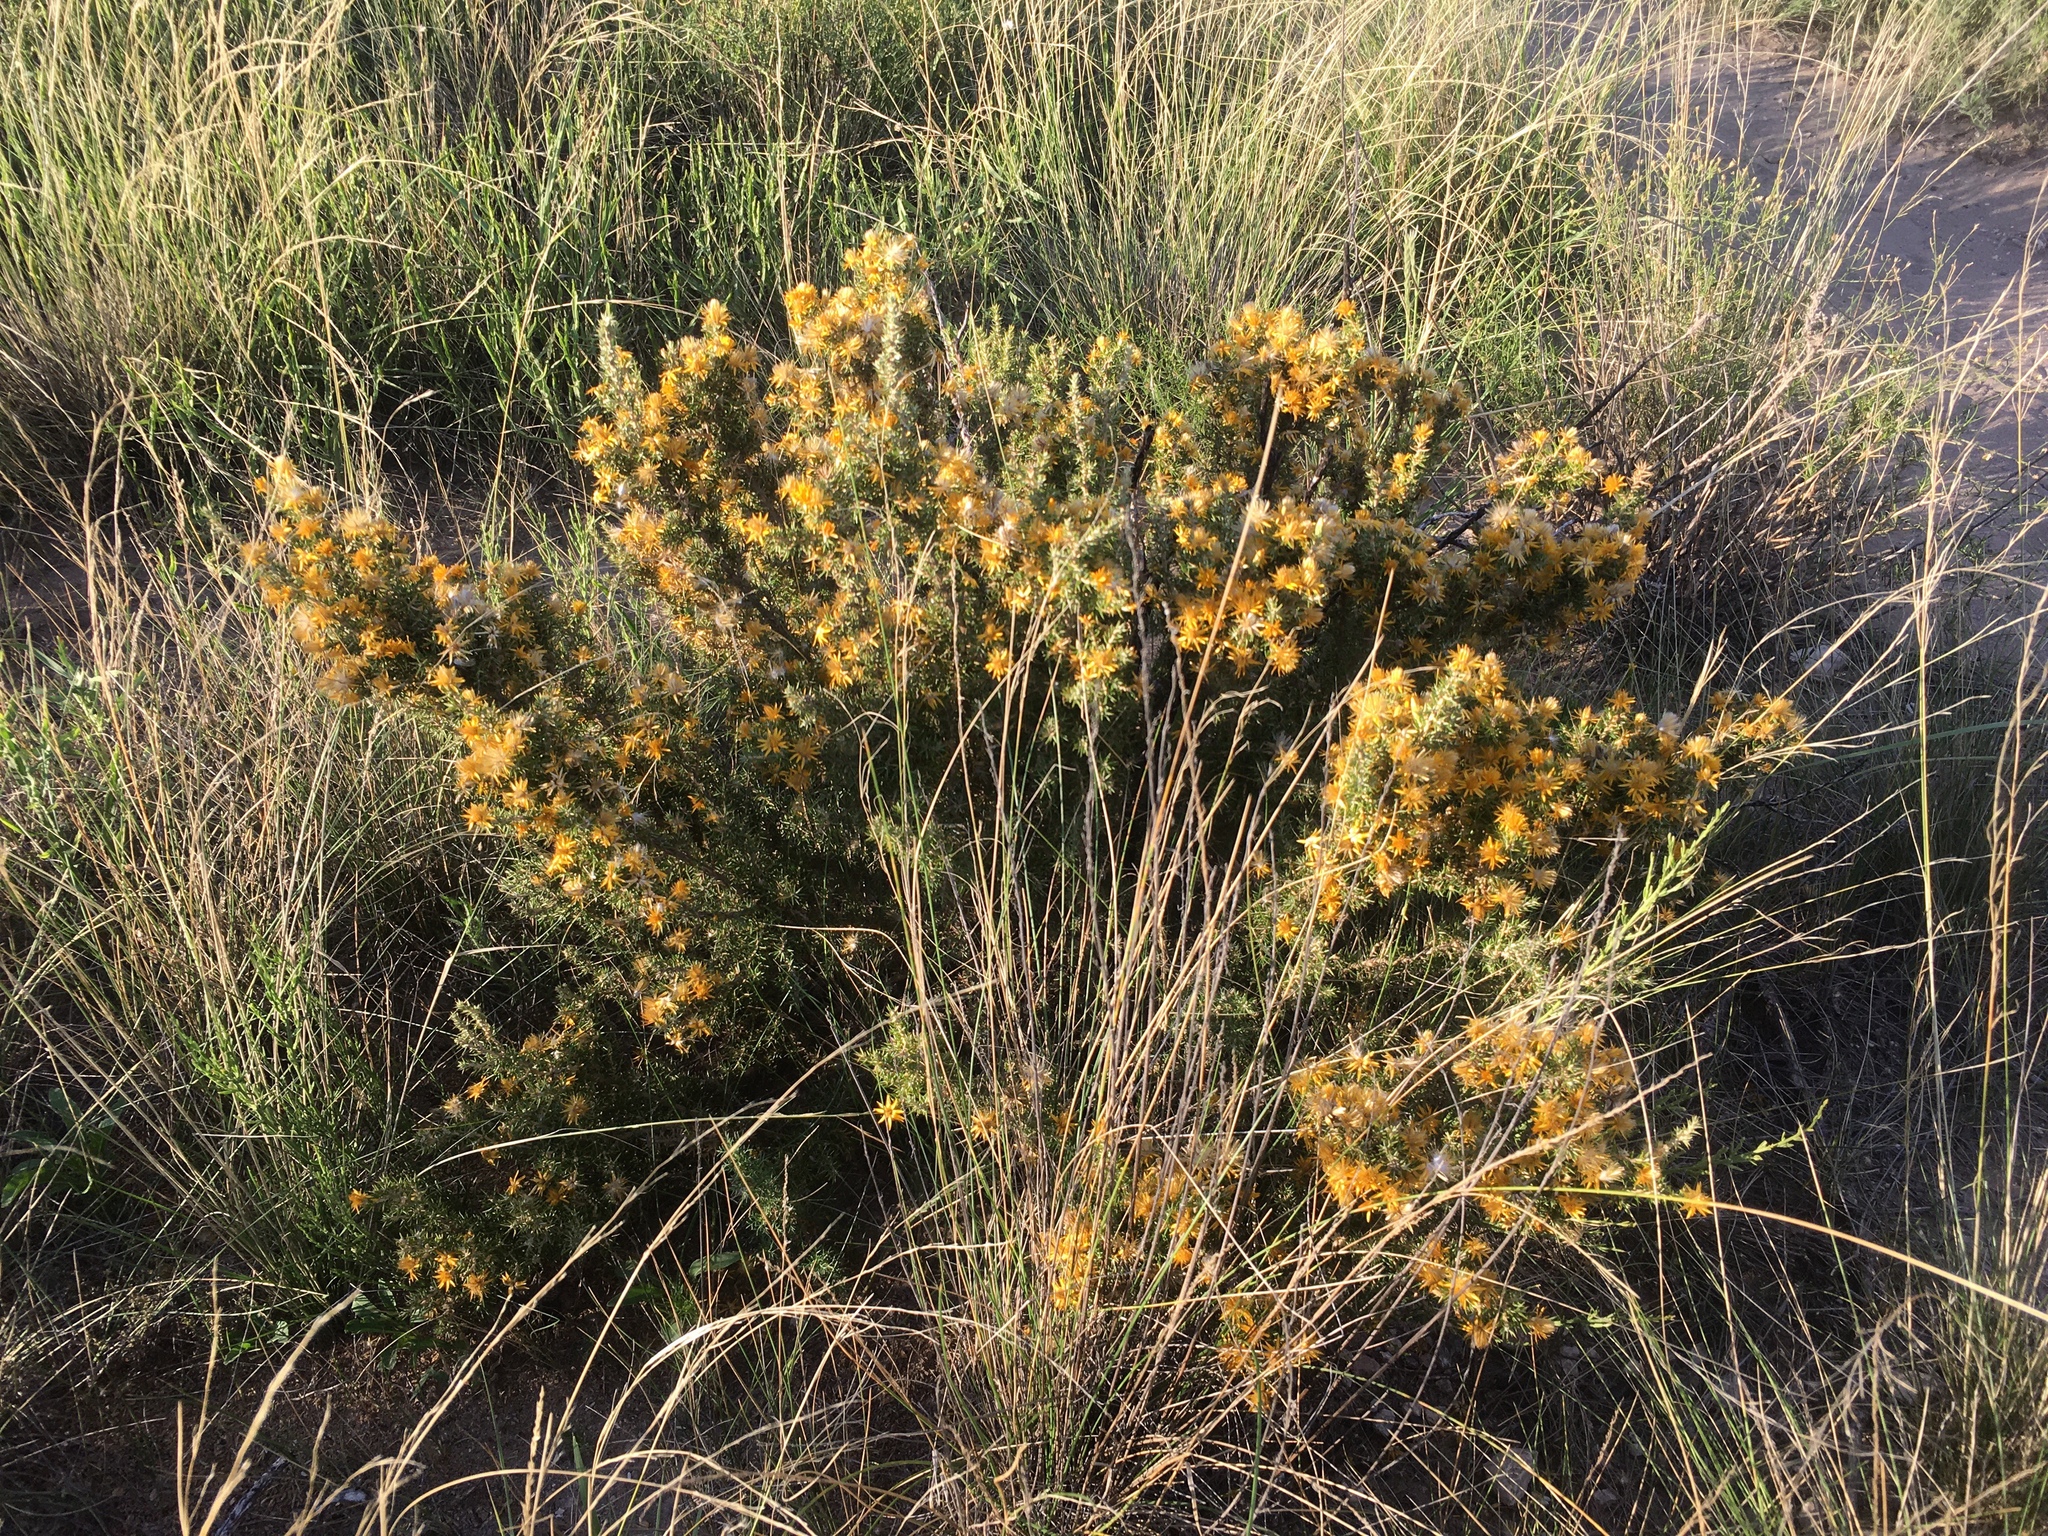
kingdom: Plantae
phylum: Tracheophyta
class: Magnoliopsida
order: Asterales
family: Asteraceae
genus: Chuquiraga
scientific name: Chuquiraga erinacea
